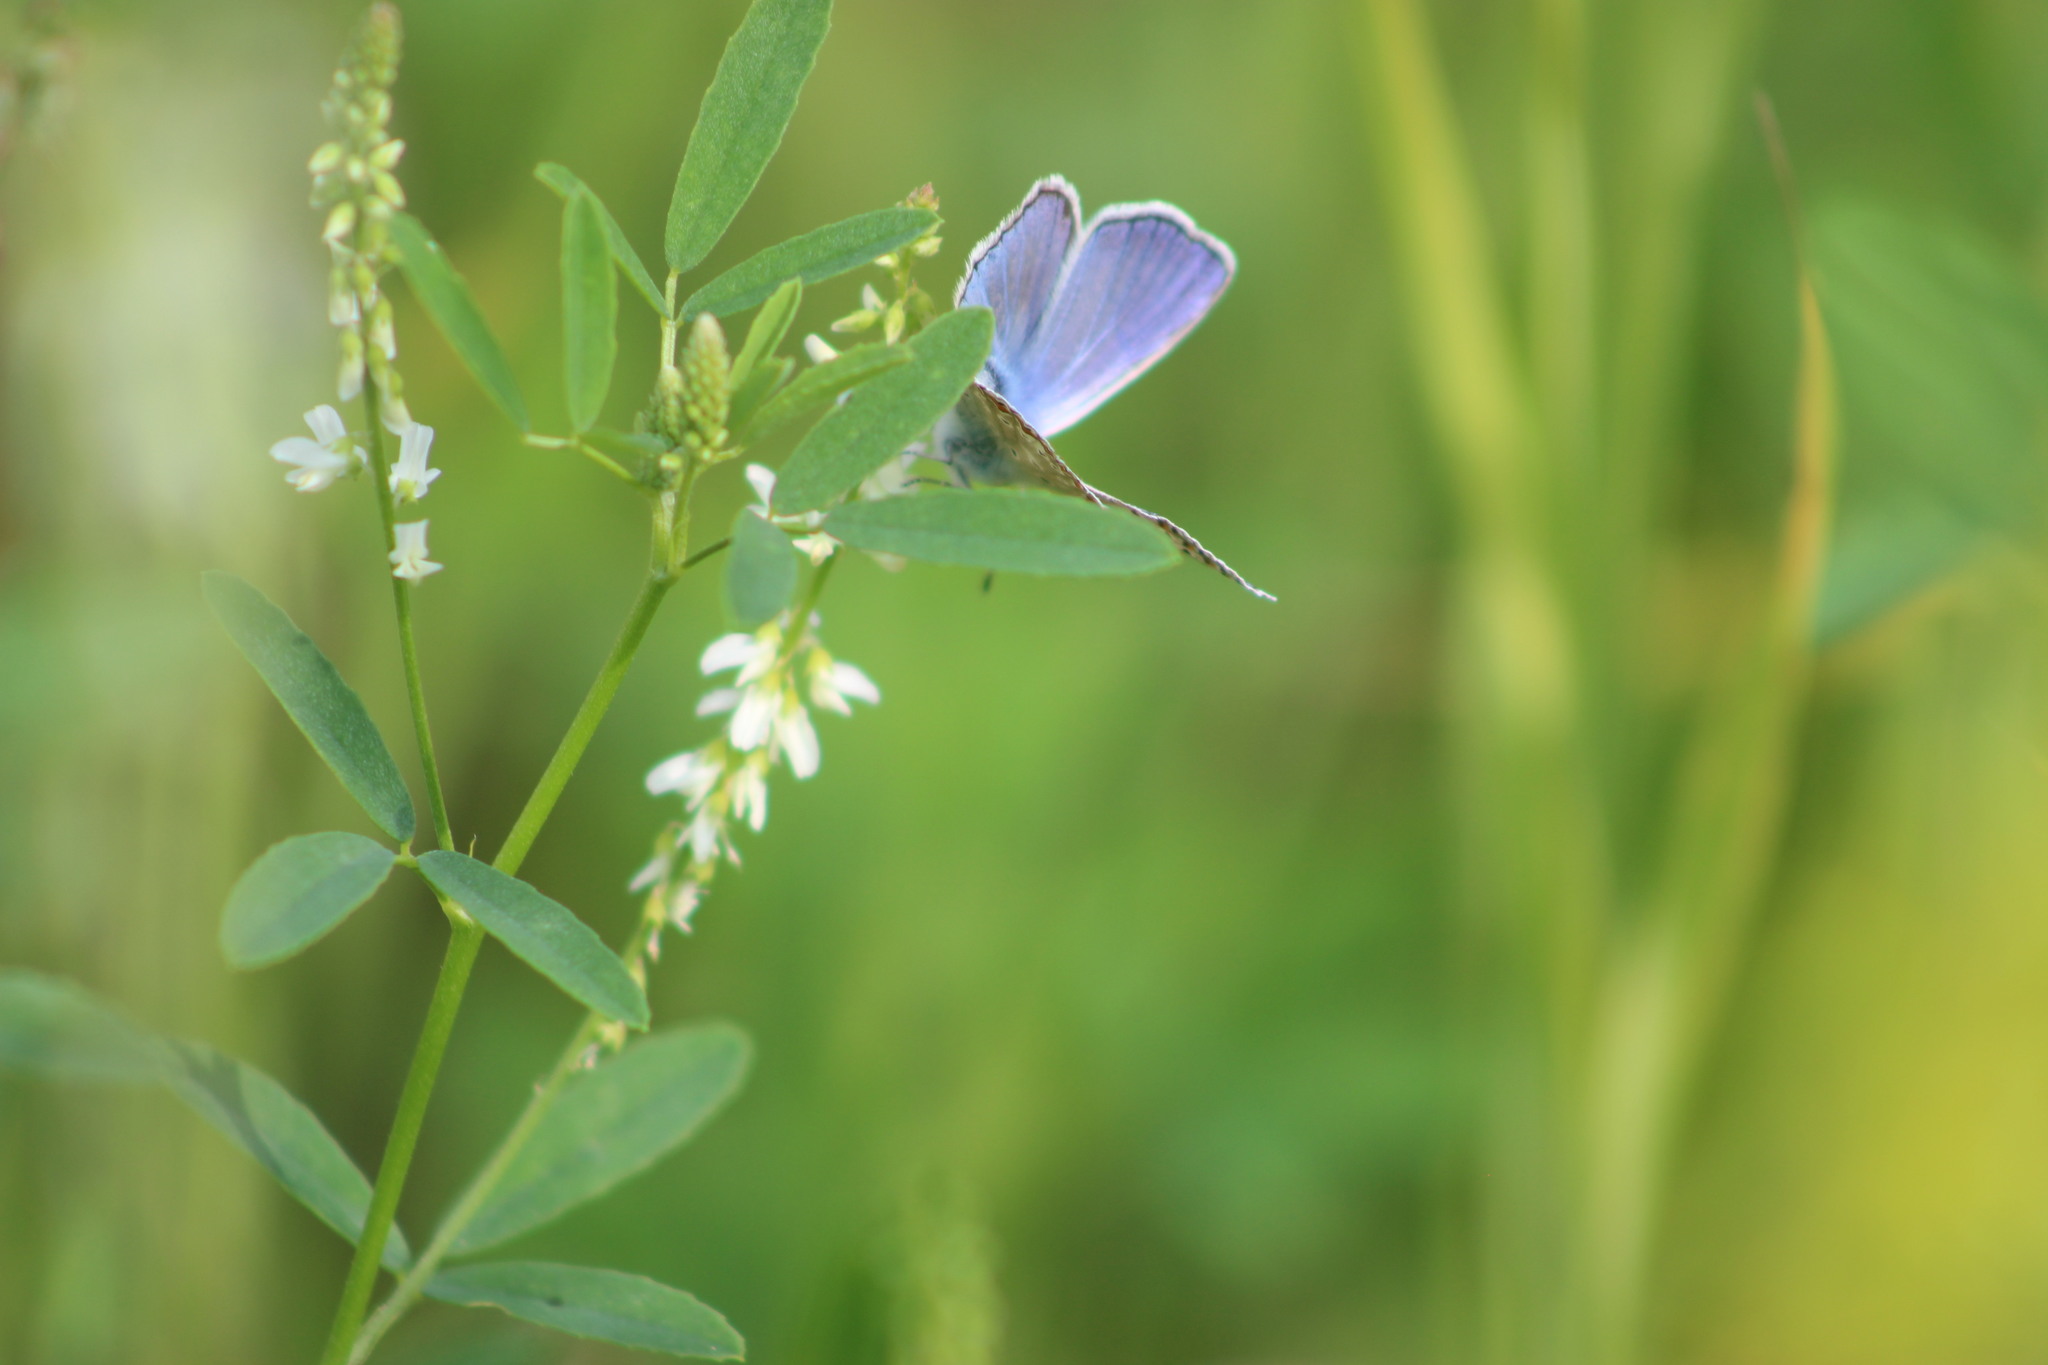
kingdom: Animalia
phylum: Arthropoda
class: Insecta
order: Lepidoptera
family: Lycaenidae
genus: Polyommatus
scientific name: Polyommatus icarus
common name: Common blue
